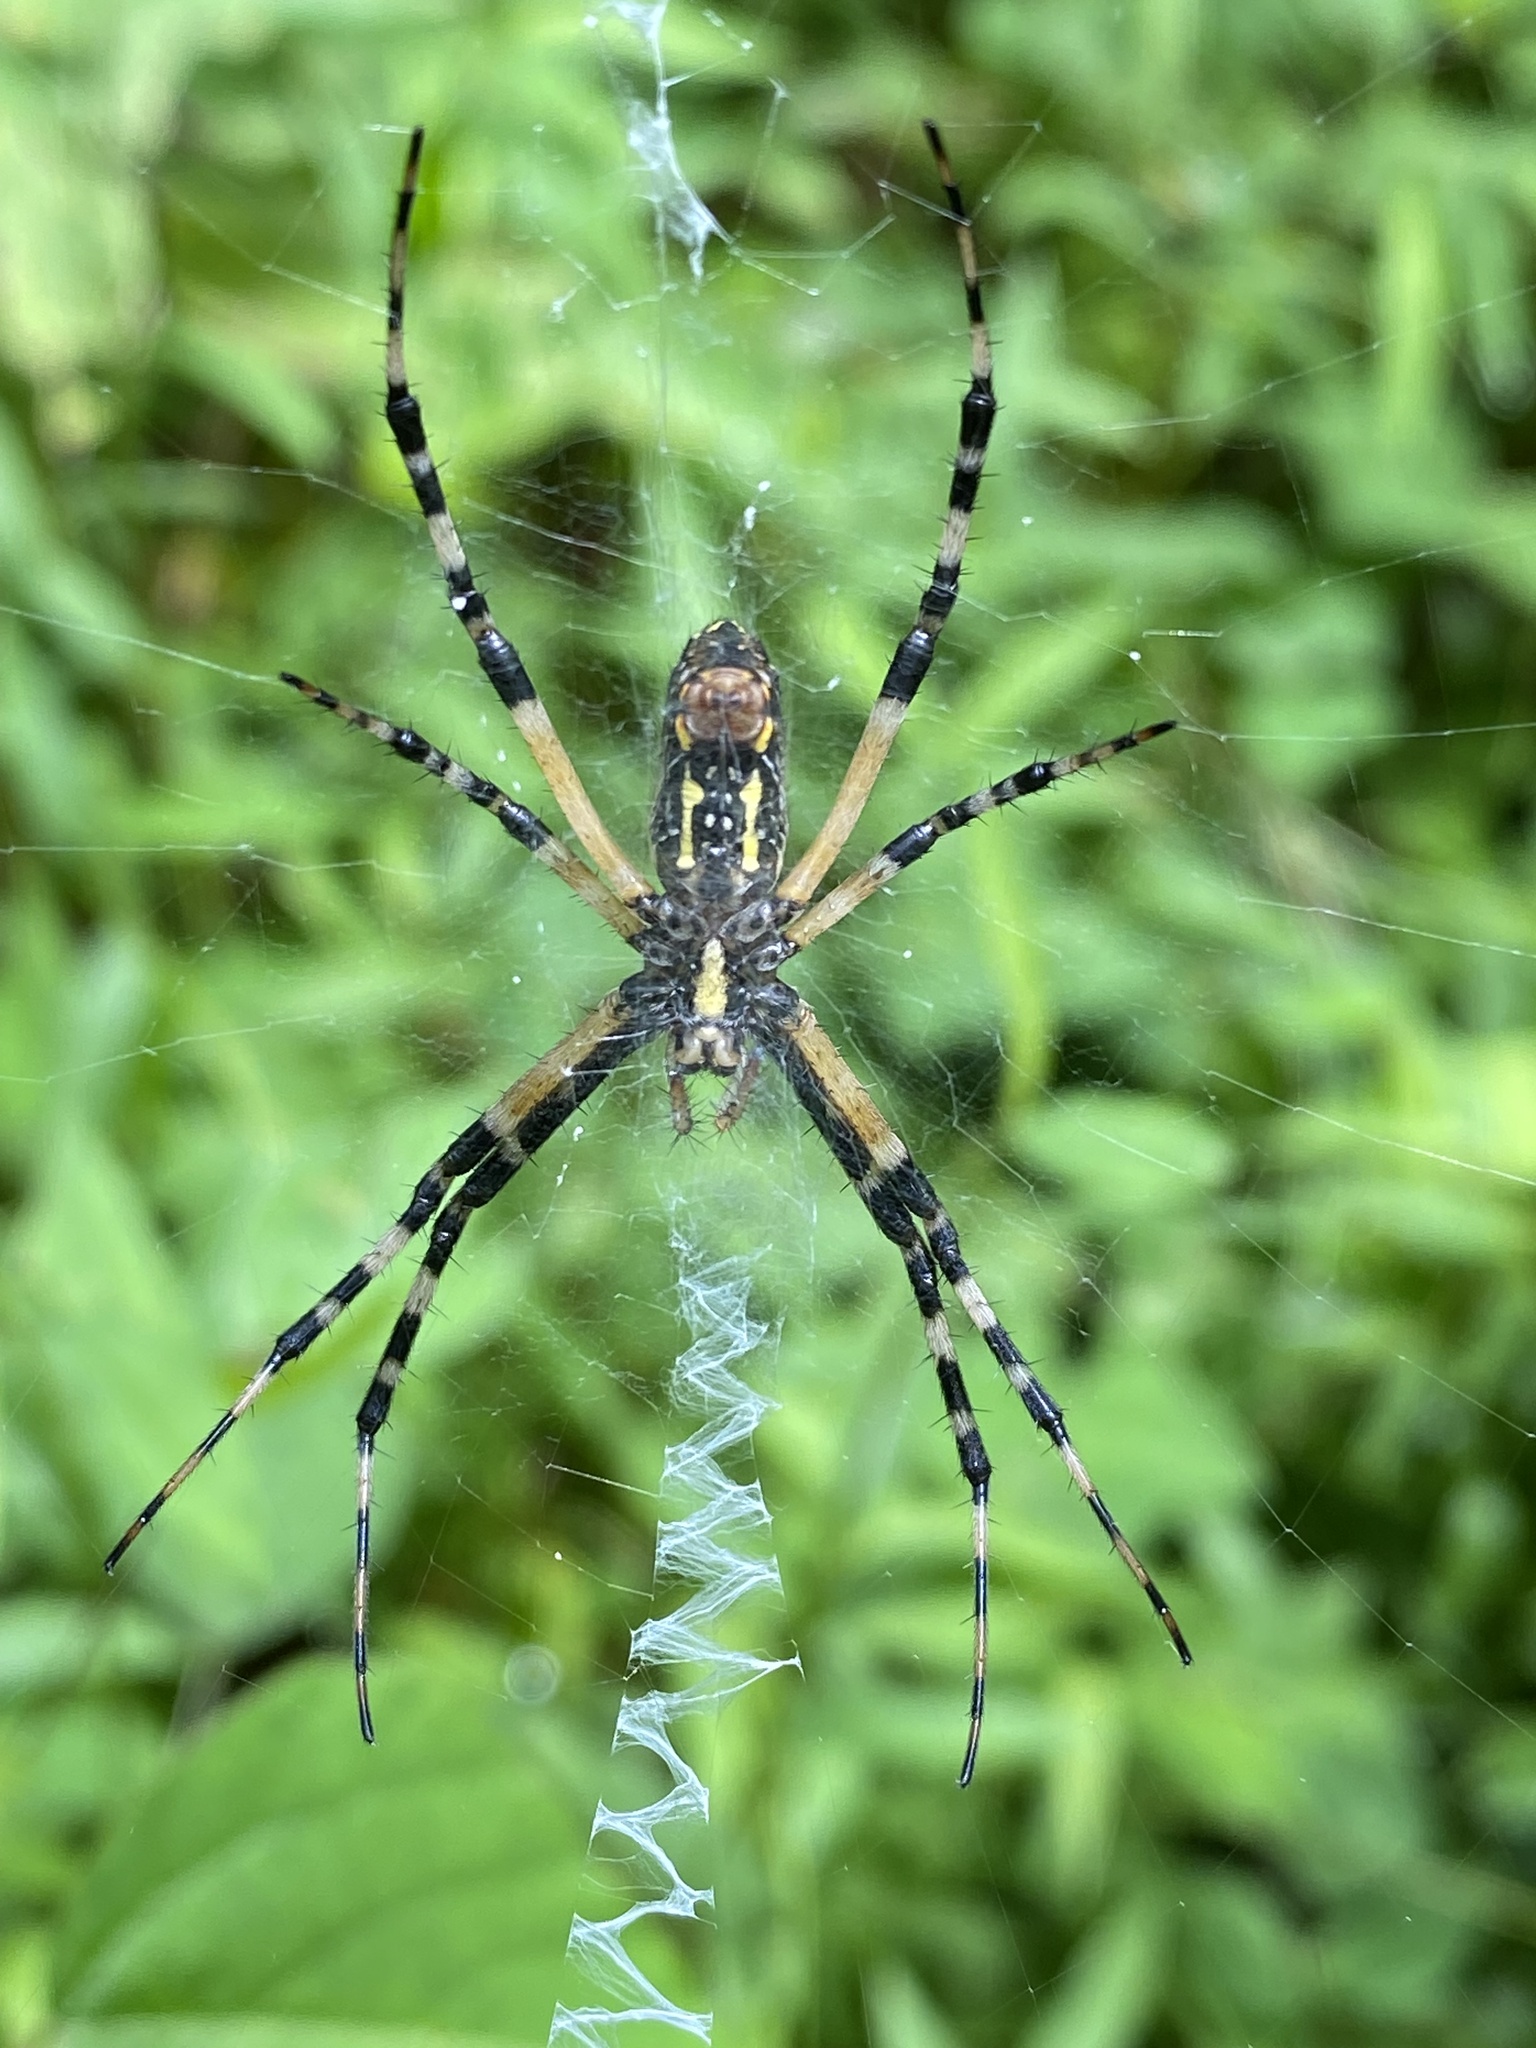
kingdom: Animalia
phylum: Arthropoda
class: Arachnida
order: Araneae
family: Araneidae
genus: Argiope
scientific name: Argiope aurantia
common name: Orb weavers
